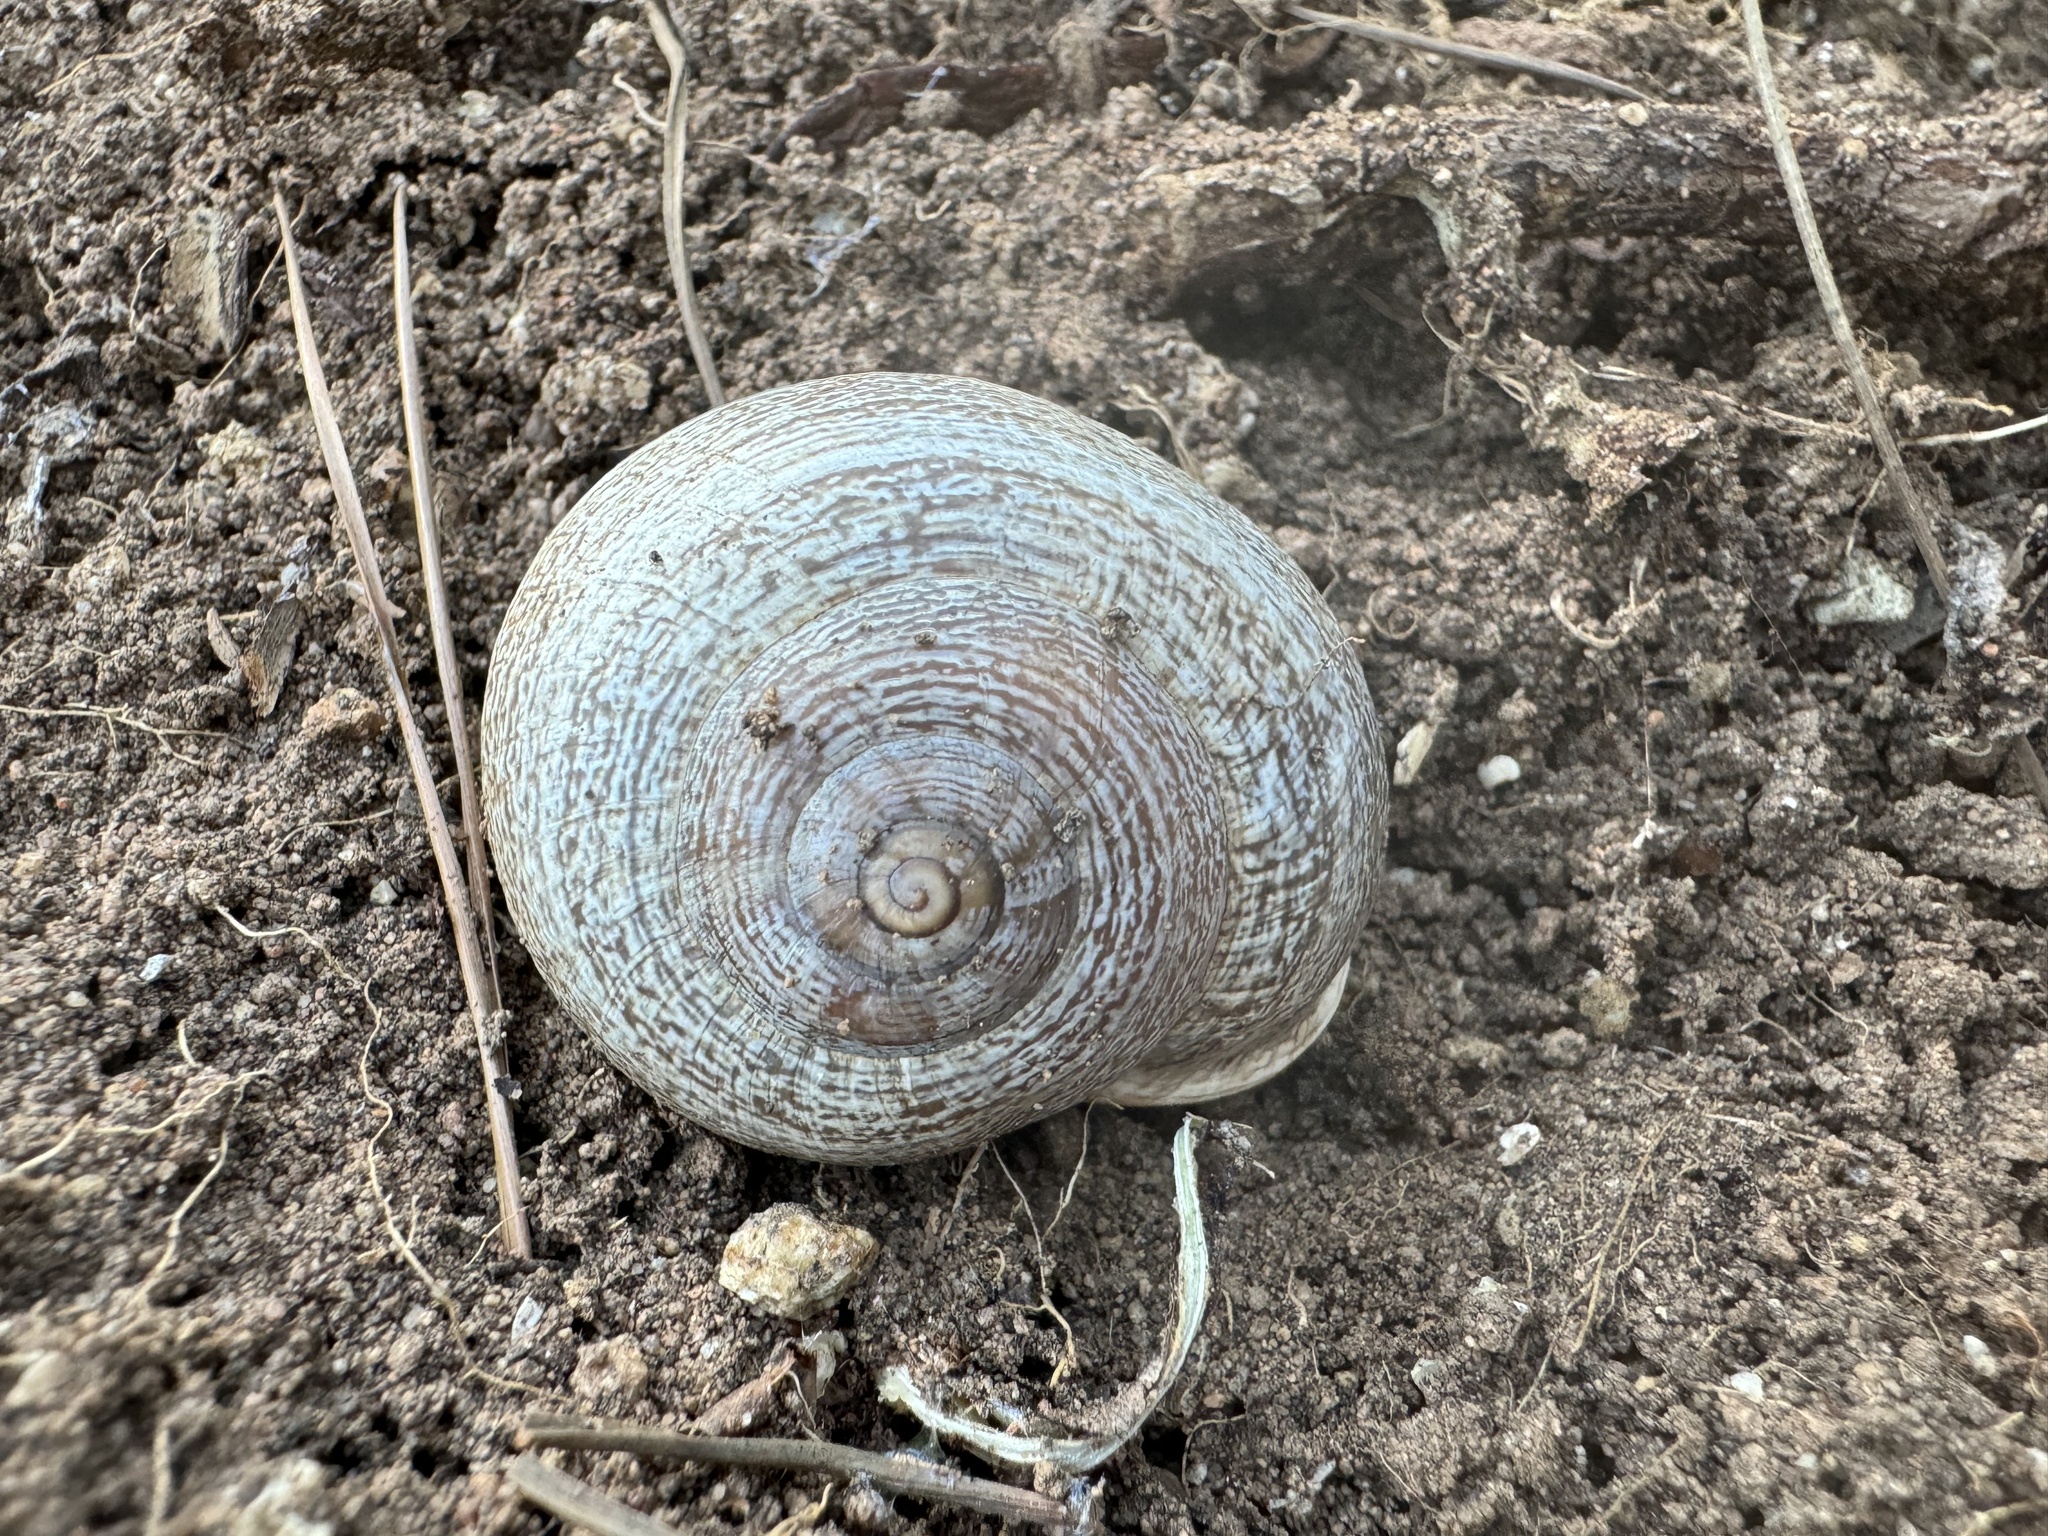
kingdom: Animalia
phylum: Mollusca
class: Gastropoda
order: Stylommatophora
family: Helicidae
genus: Otala
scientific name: Otala lactea
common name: Milk snail
